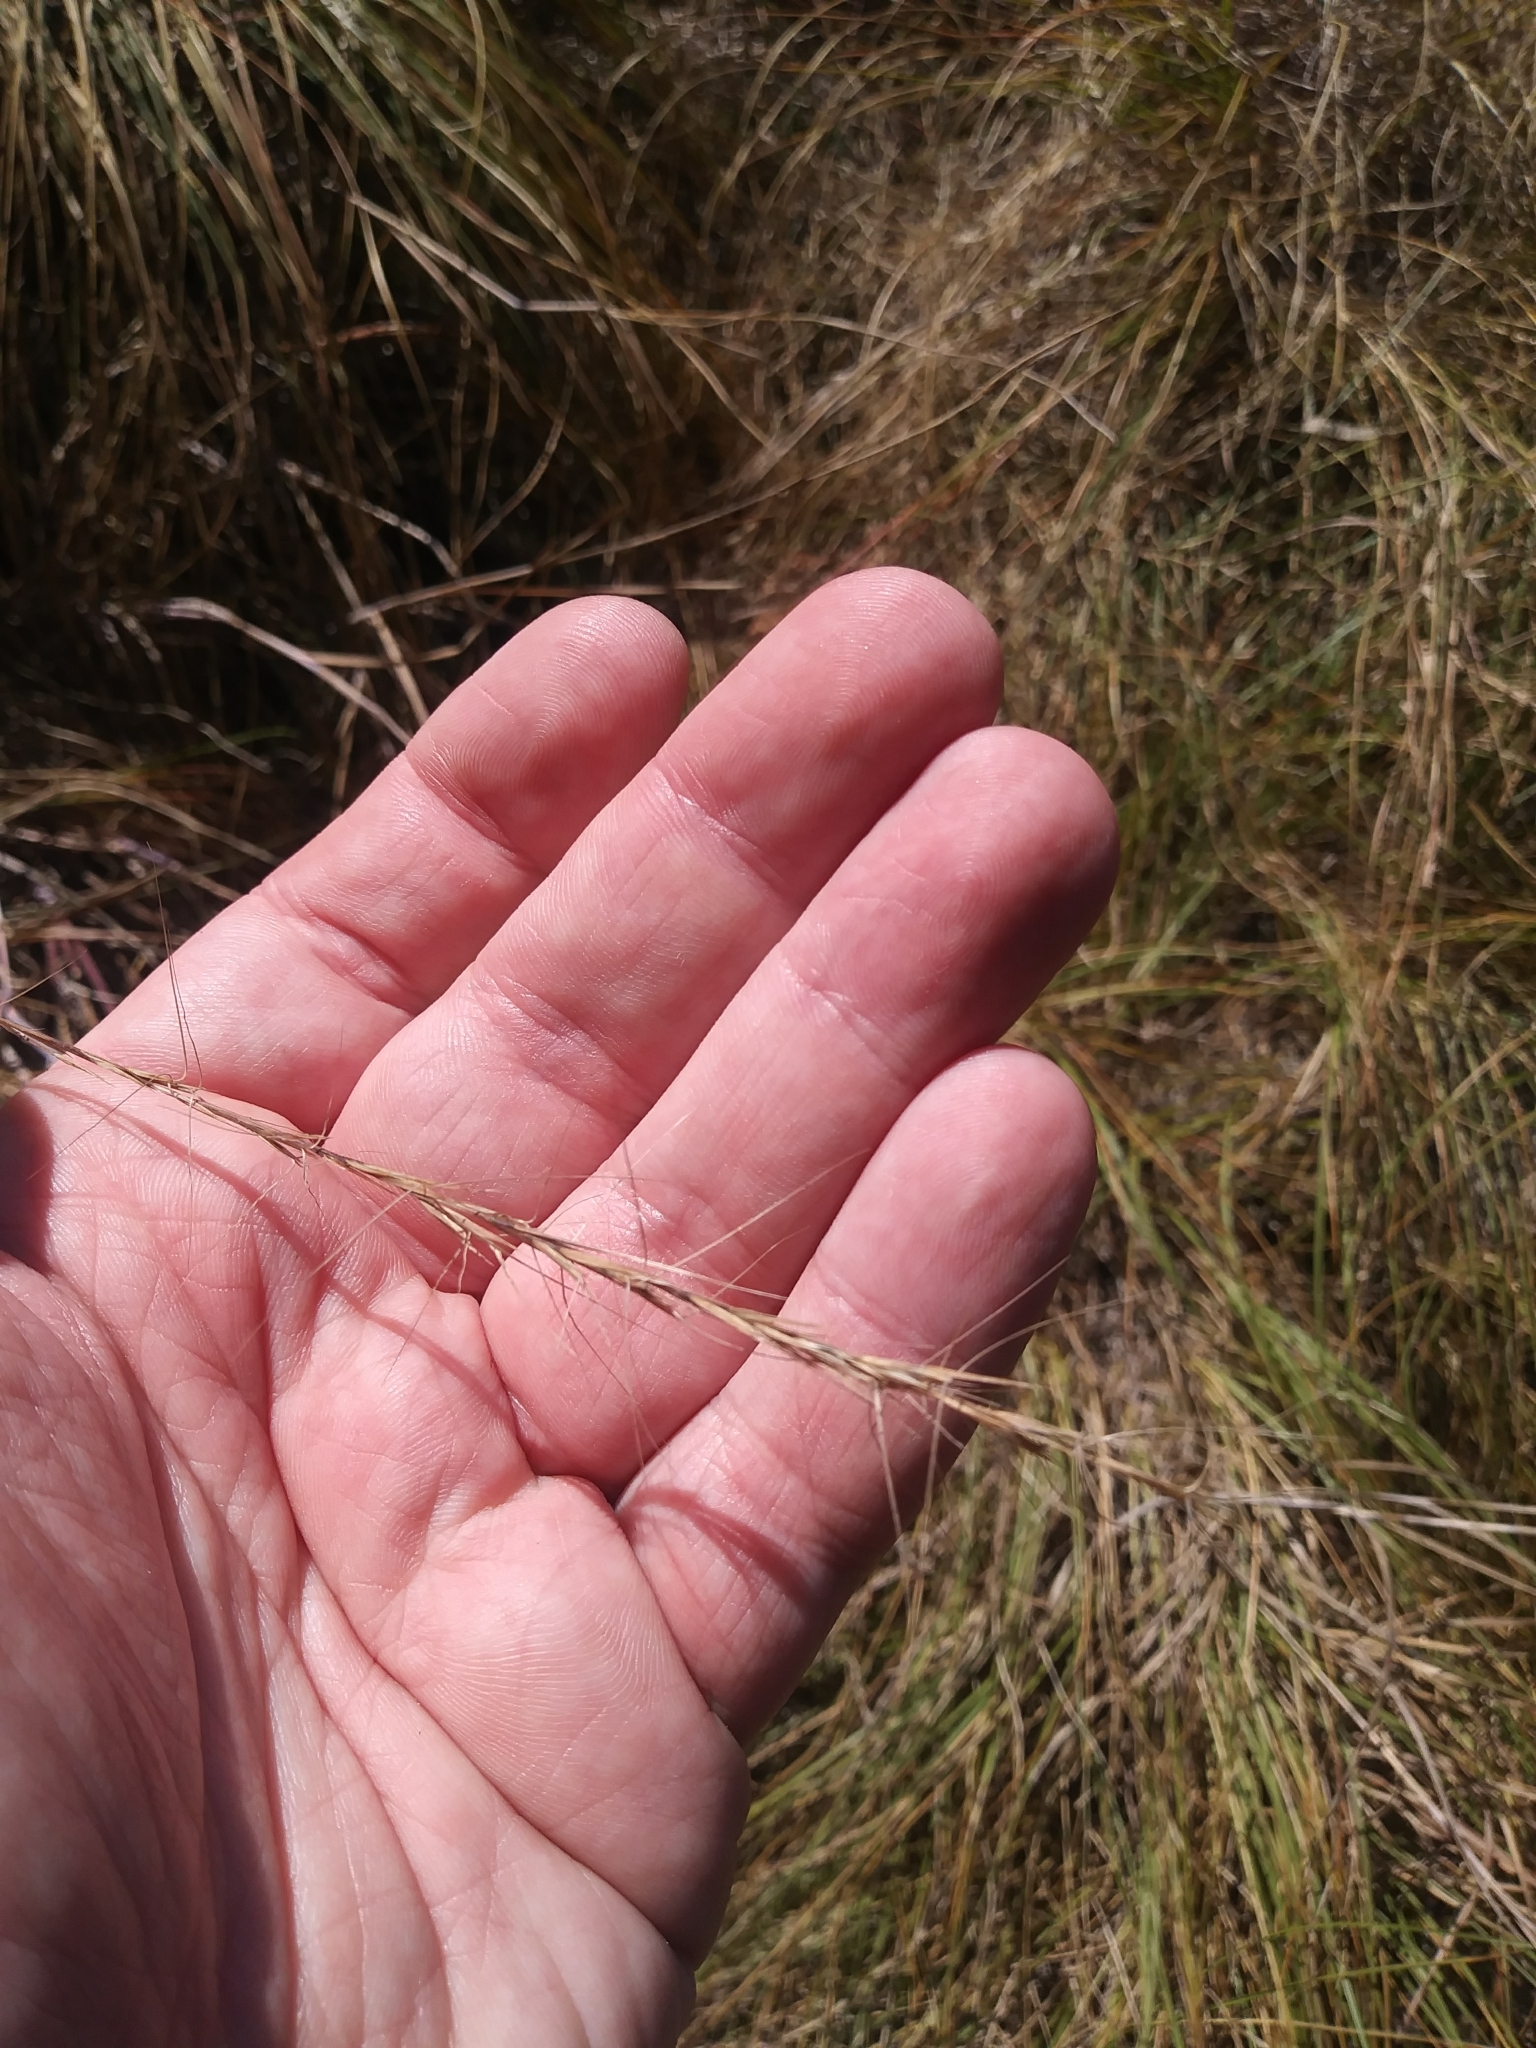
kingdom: Plantae
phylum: Tracheophyta
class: Liliopsida
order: Poales
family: Poaceae
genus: Aristida
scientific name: Aristida purpurascens
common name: Arrow-feather
